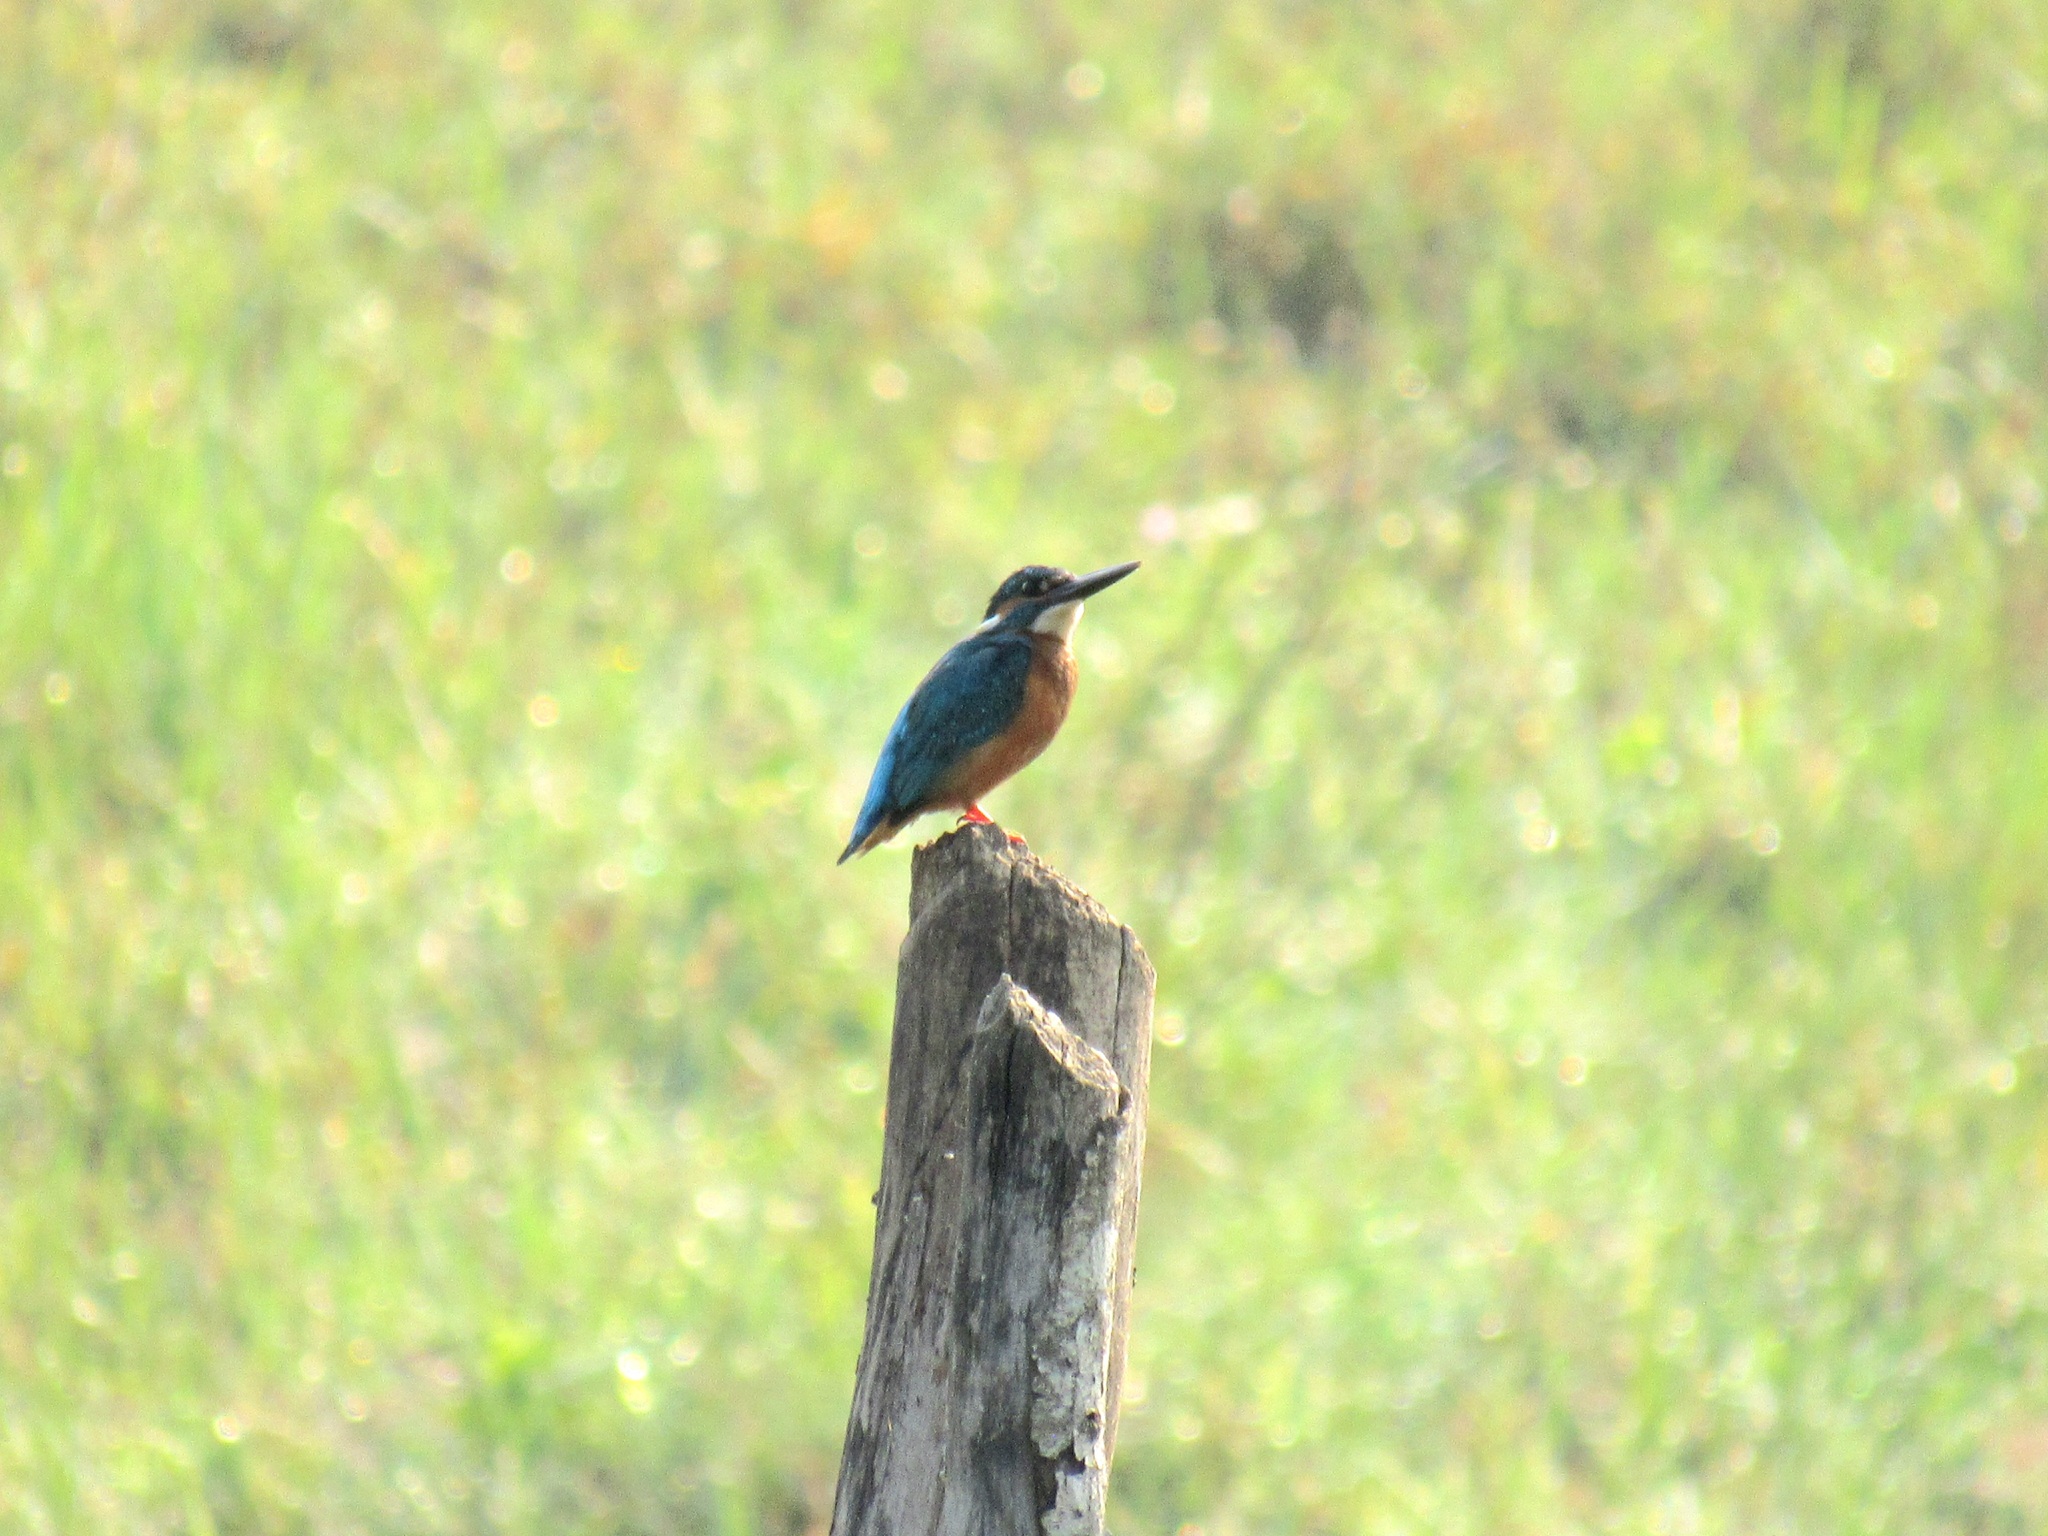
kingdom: Animalia
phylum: Chordata
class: Aves
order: Coraciiformes
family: Alcedinidae
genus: Alcedo
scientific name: Alcedo atthis
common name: Common kingfisher
